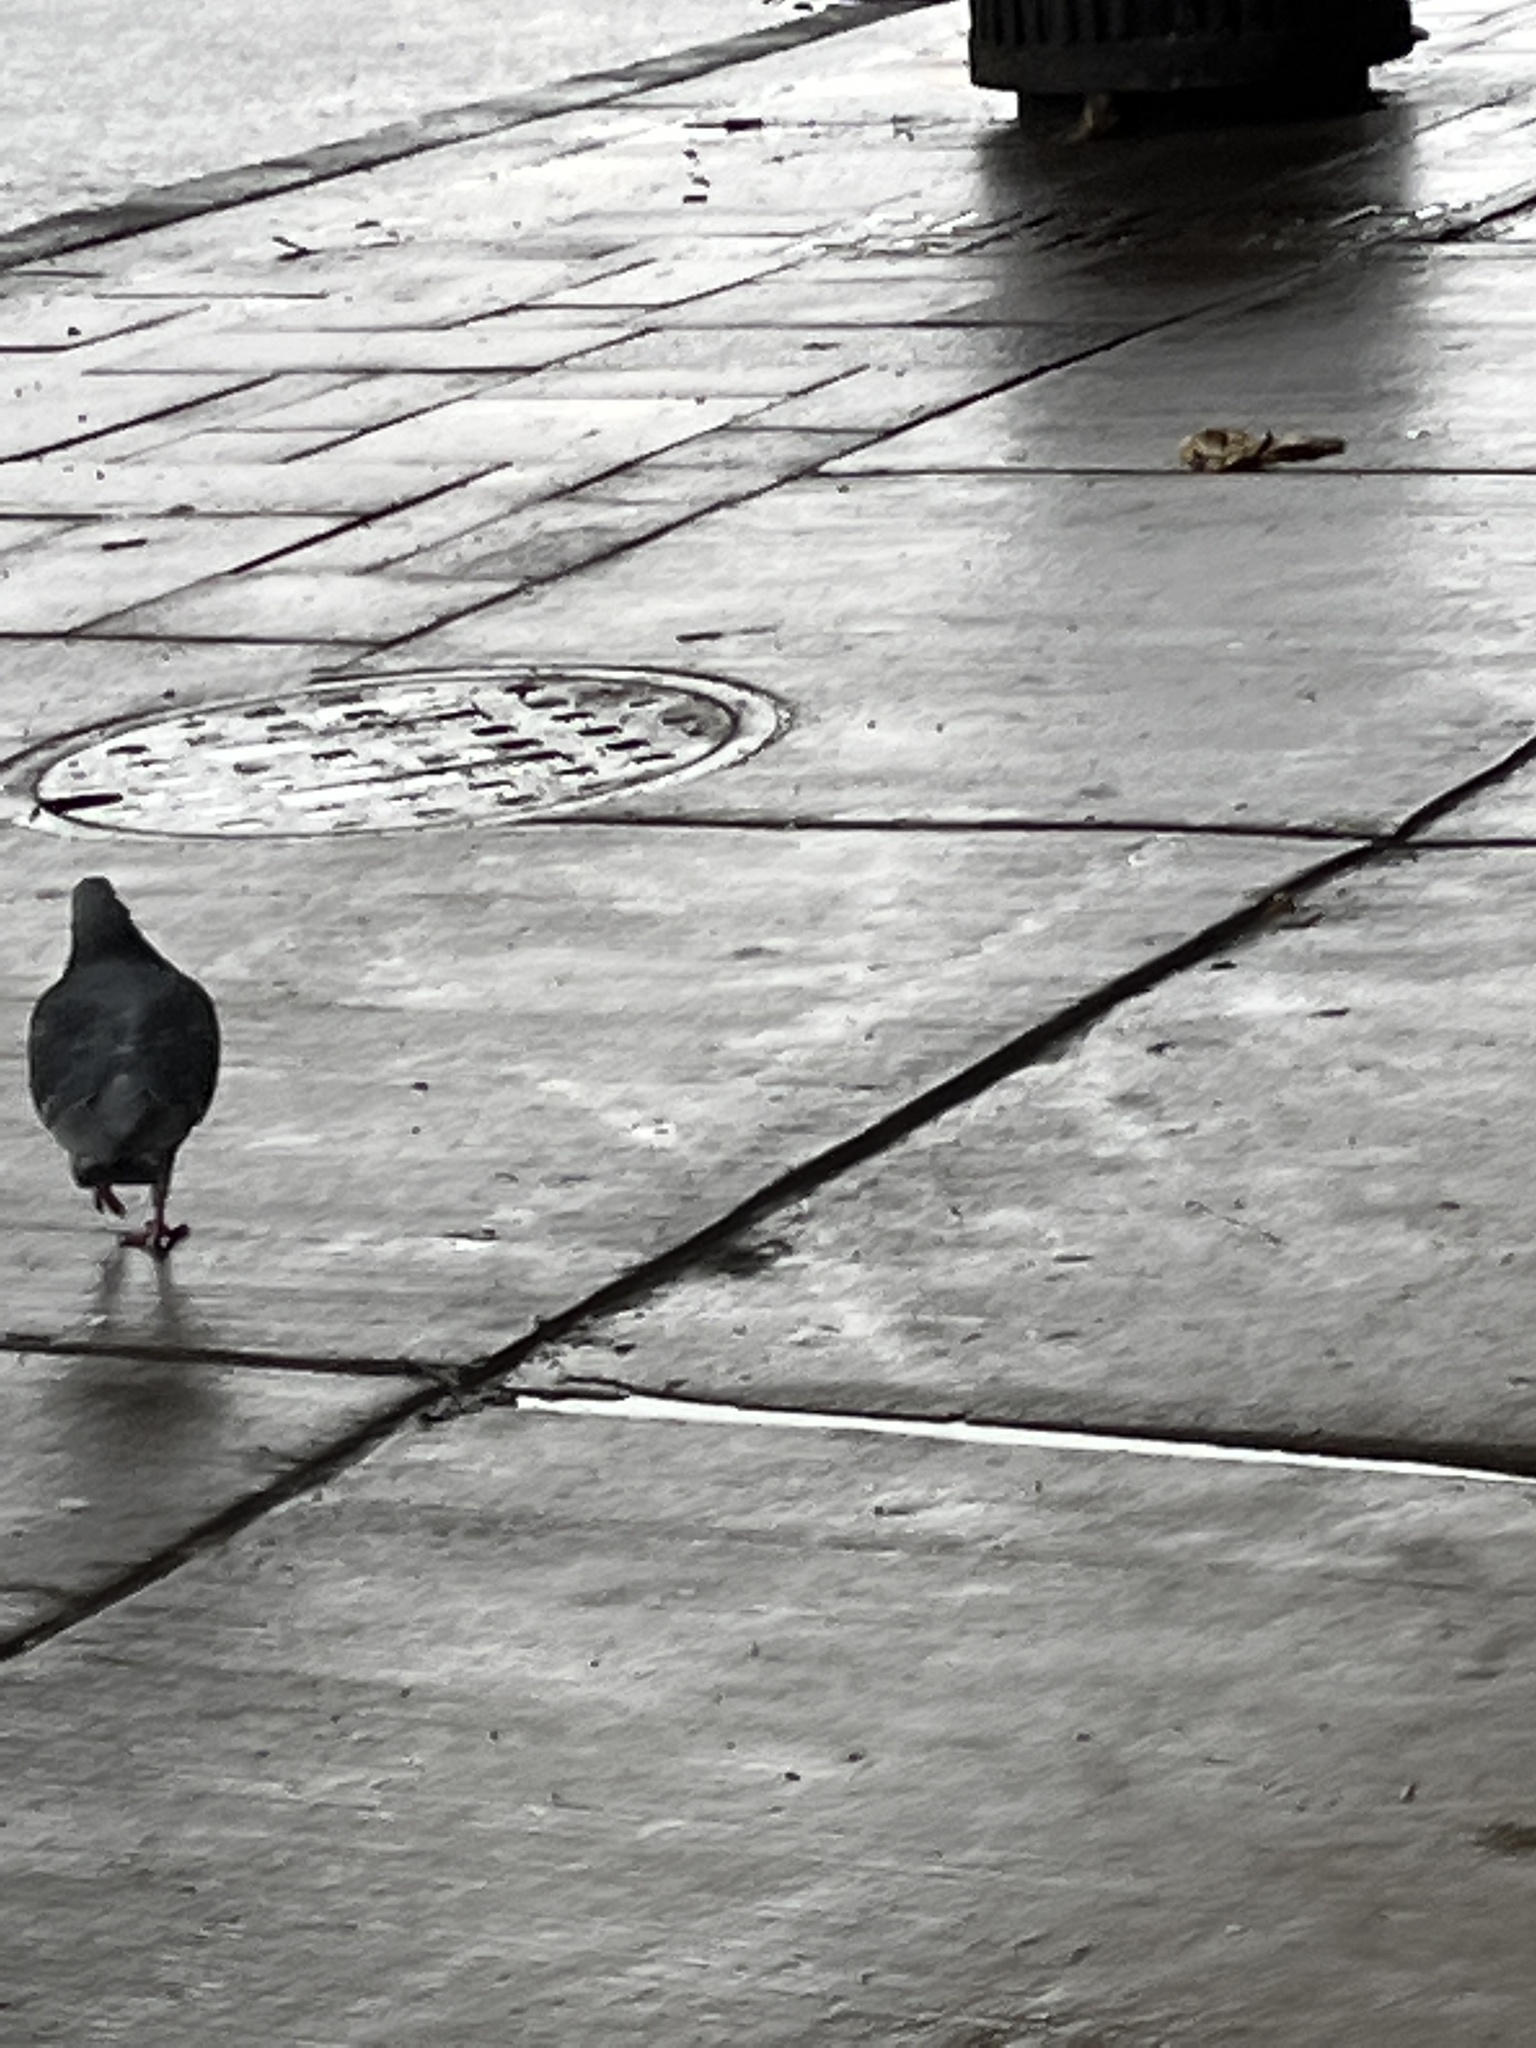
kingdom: Animalia
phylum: Chordata
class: Aves
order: Columbiformes
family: Columbidae
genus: Columba
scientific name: Columba livia
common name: Rock pigeon
